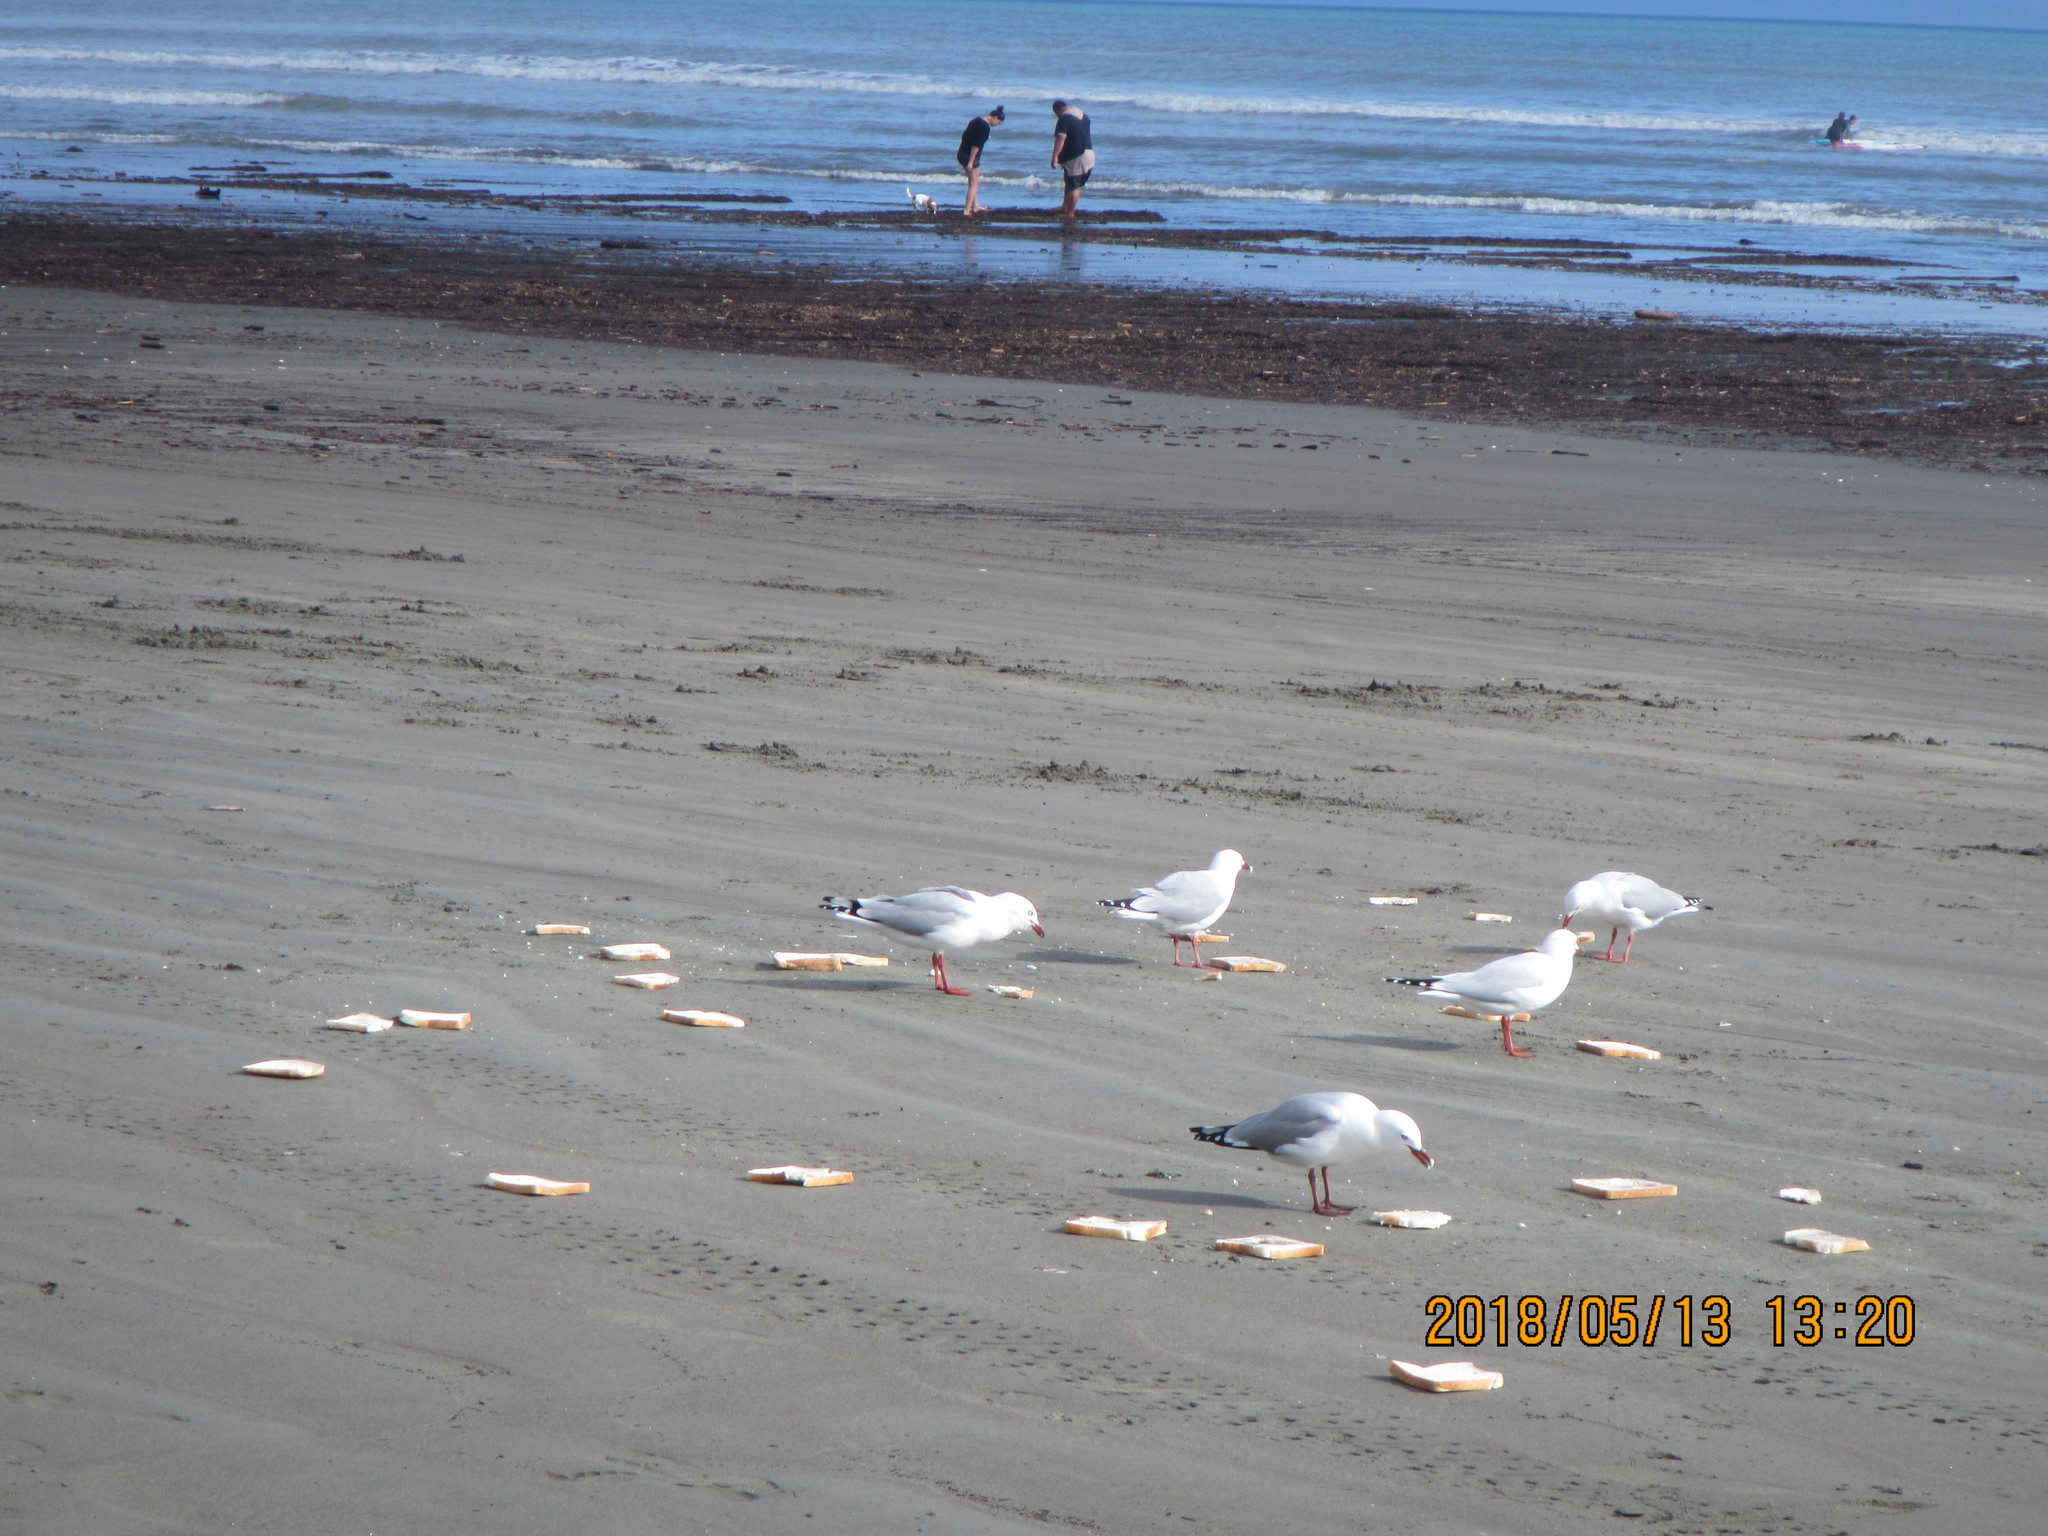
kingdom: Animalia
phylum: Chordata
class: Aves
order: Charadriiformes
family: Laridae
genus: Chroicocephalus
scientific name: Chroicocephalus novaehollandiae
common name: Silver gull
